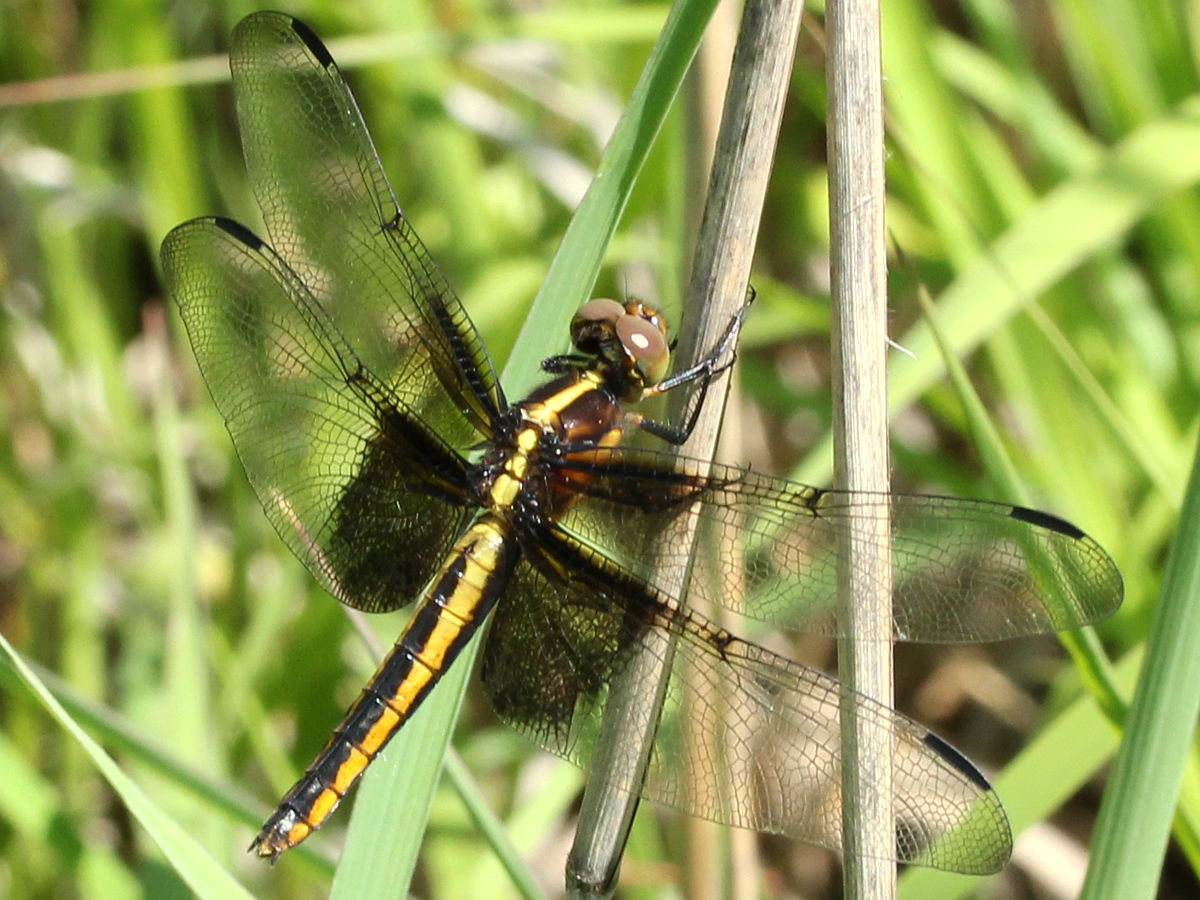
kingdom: Animalia
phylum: Arthropoda
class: Insecta
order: Odonata
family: Libellulidae
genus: Libellula
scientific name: Libellula luctuosa
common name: Widow skimmer
